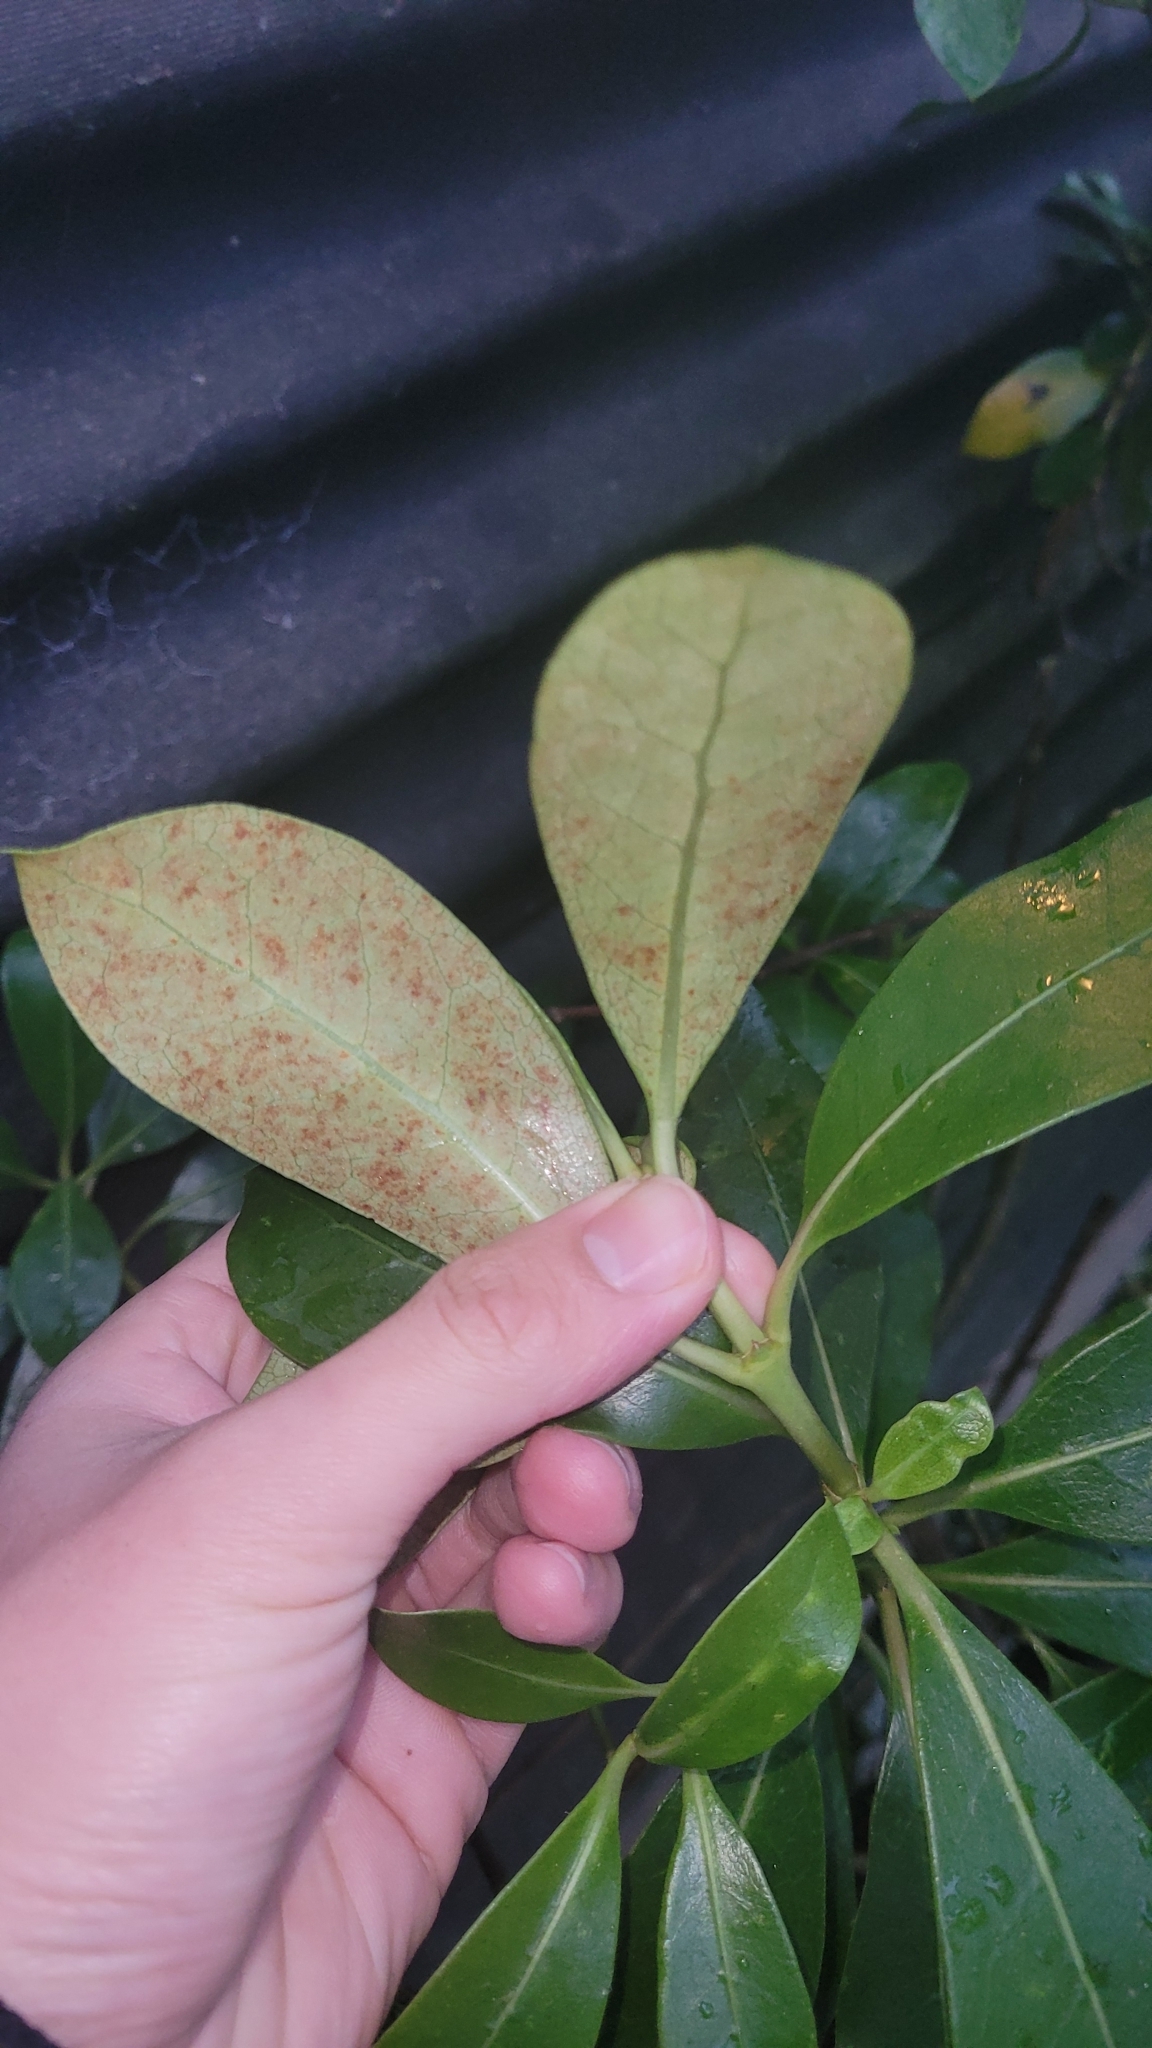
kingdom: Plantae
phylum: Tracheophyta
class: Magnoliopsida
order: Gentianales
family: Rubiaceae
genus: Coprosma
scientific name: Coprosma lucida
